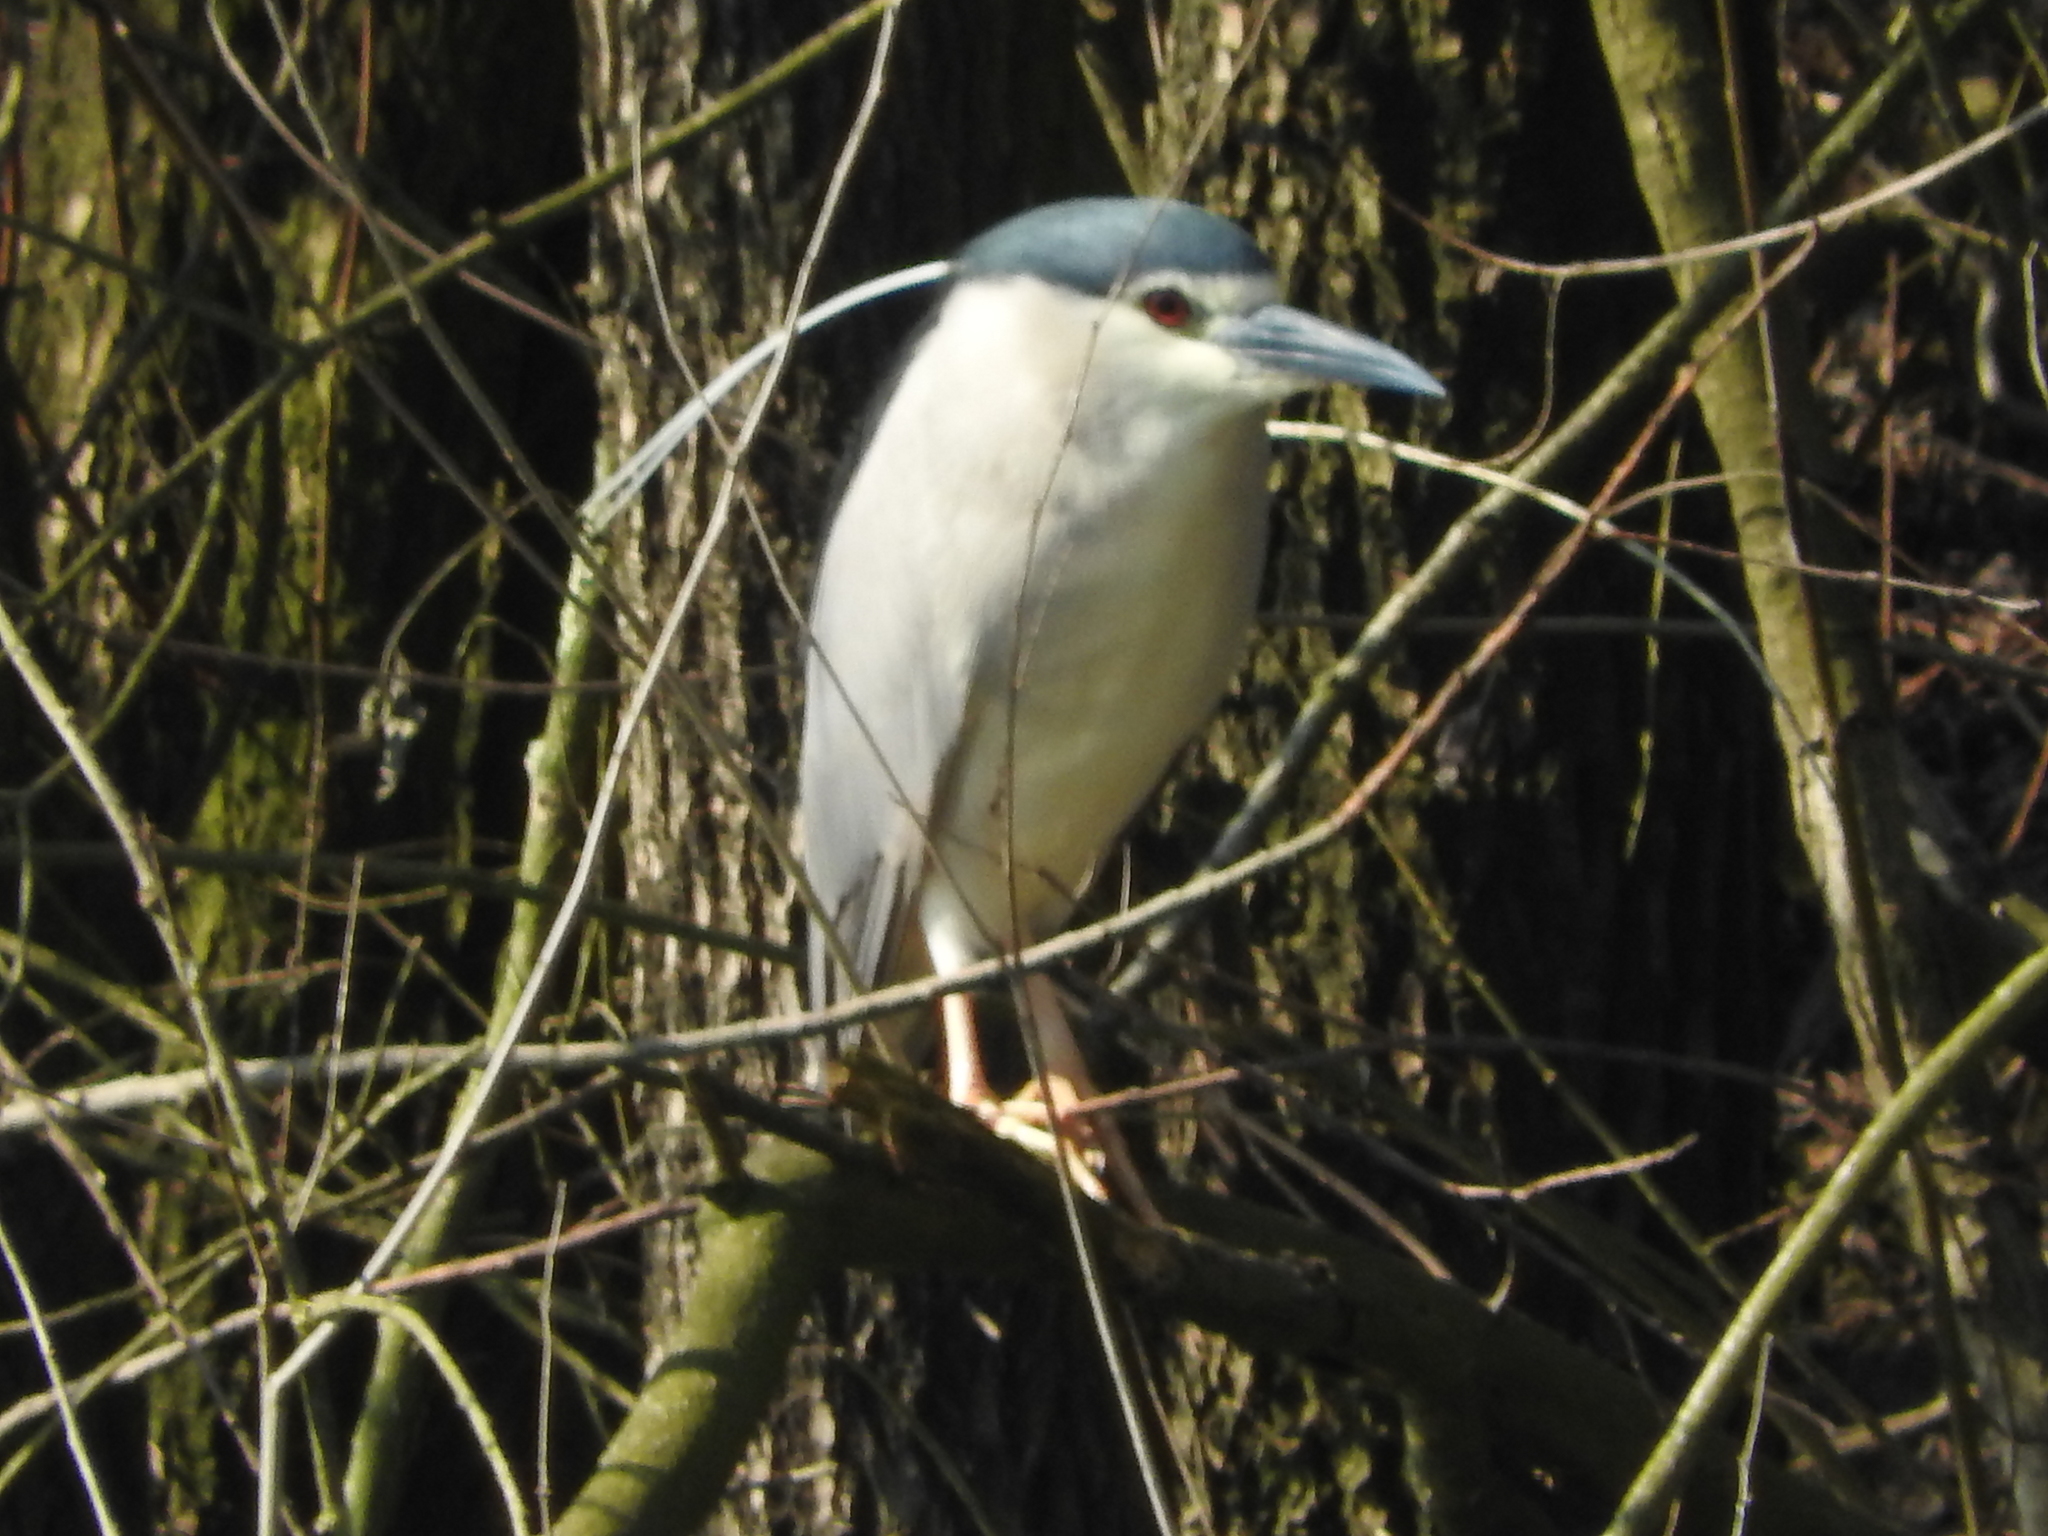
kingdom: Animalia
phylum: Chordata
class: Aves
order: Pelecaniformes
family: Ardeidae
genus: Nycticorax
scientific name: Nycticorax nycticorax
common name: Black-crowned night heron
